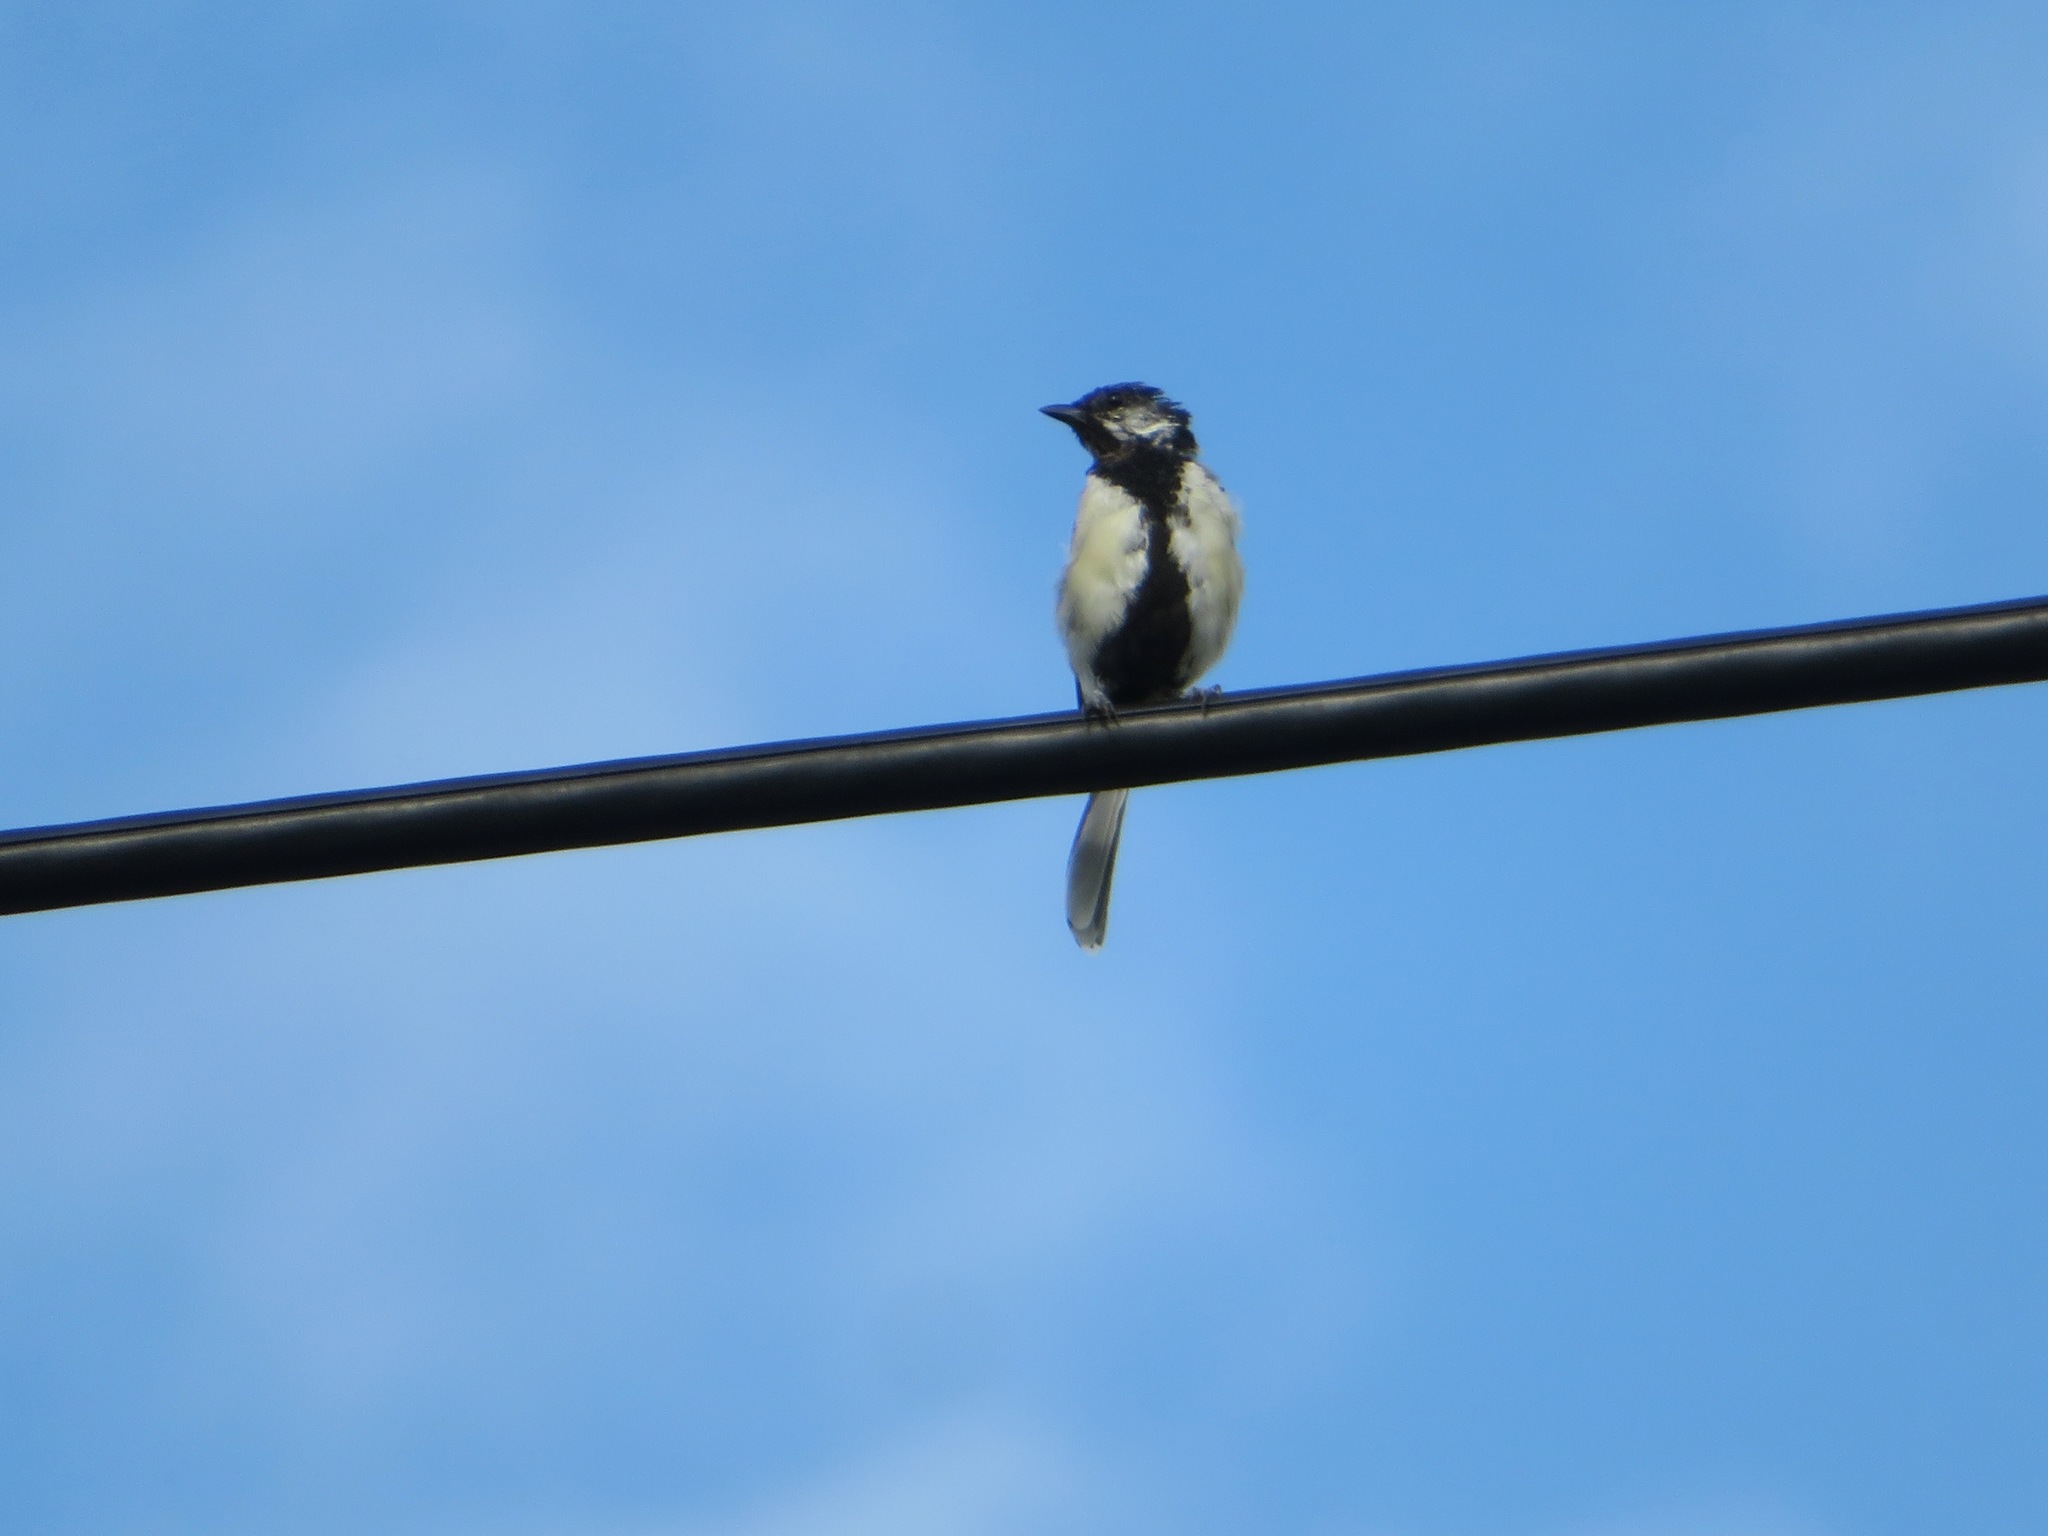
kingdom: Animalia
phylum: Chordata
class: Aves
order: Passeriformes
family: Paridae
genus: Parus
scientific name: Parus minor
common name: Japanese tit
